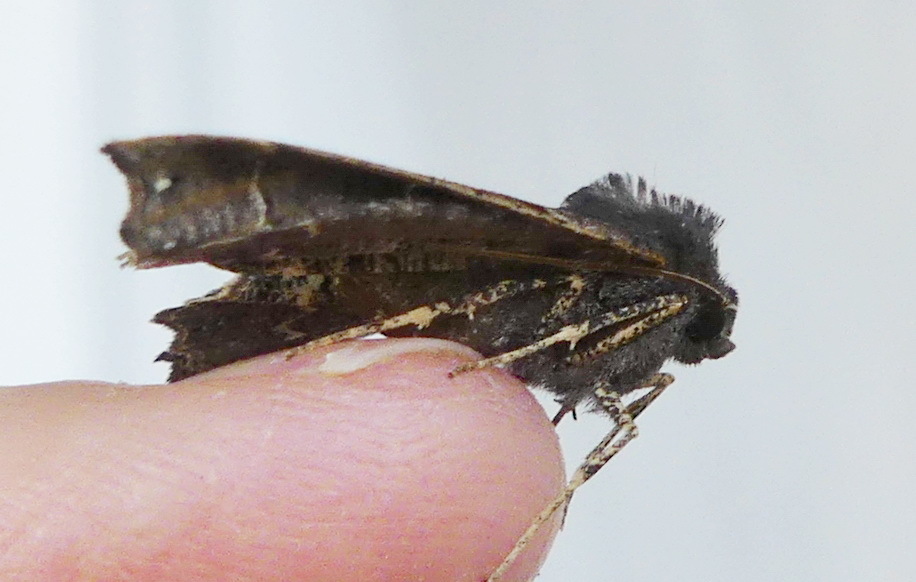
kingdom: Animalia
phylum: Arthropoda
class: Insecta
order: Lepidoptera
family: Geometridae
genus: Pero
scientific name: Pero ancetaria
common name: Hübner's pero
